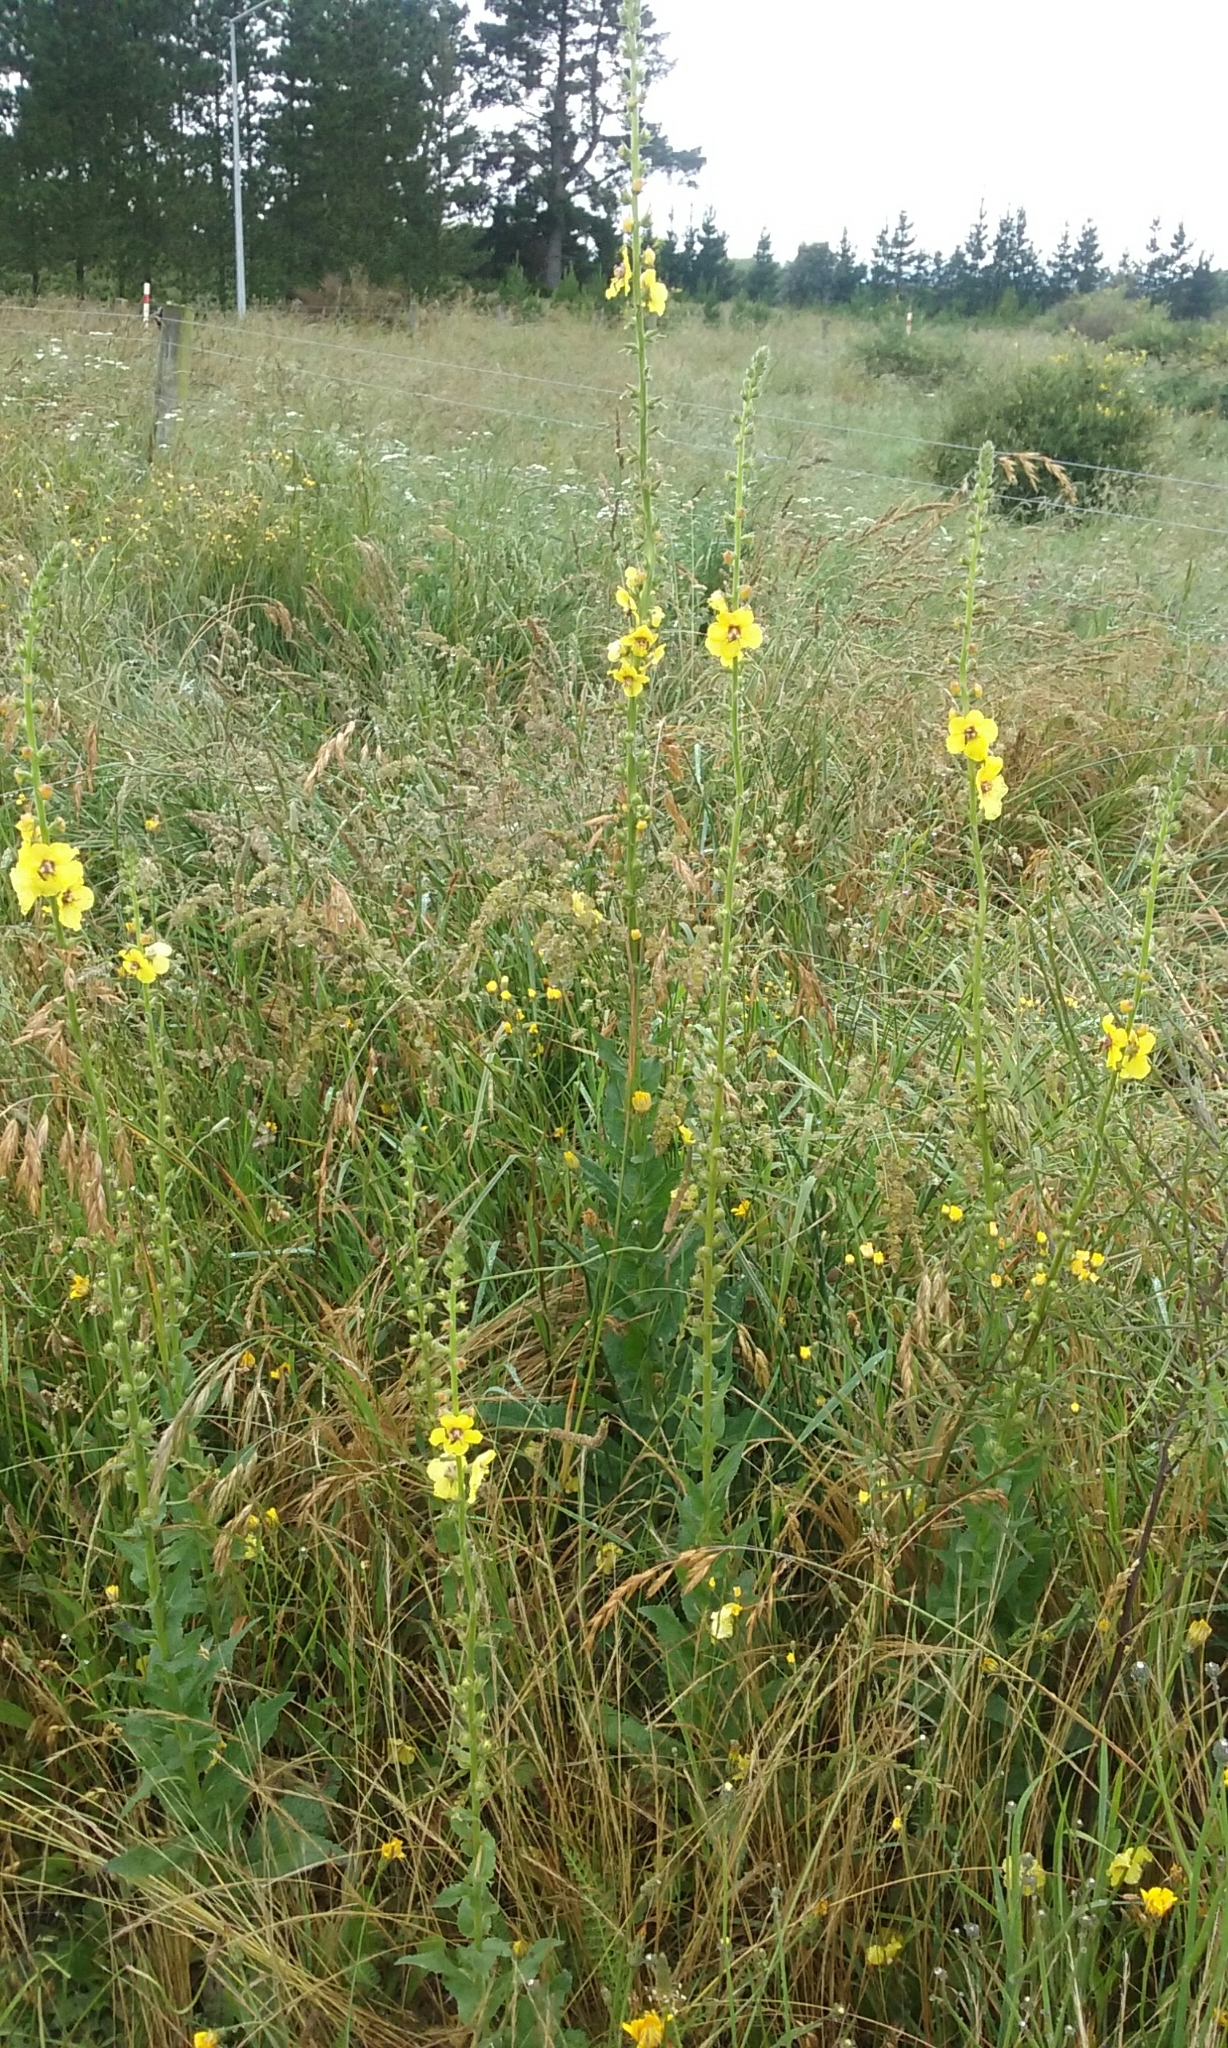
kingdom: Plantae
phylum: Tracheophyta
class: Magnoliopsida
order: Lamiales
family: Scrophulariaceae
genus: Verbascum
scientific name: Verbascum virgatum
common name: Twiggy mullein
